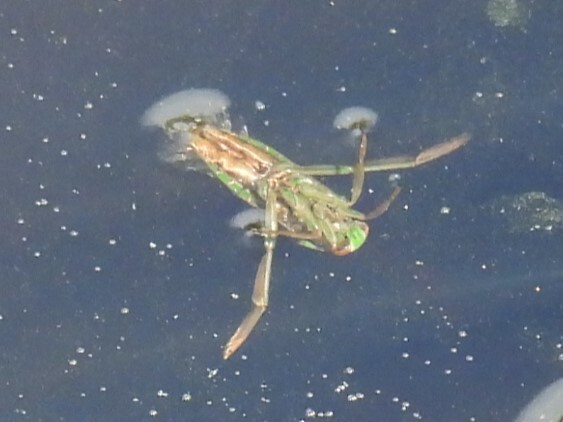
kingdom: Animalia
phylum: Arthropoda
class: Insecta
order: Hemiptera
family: Notonectidae
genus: Notonecta
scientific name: Notonecta
